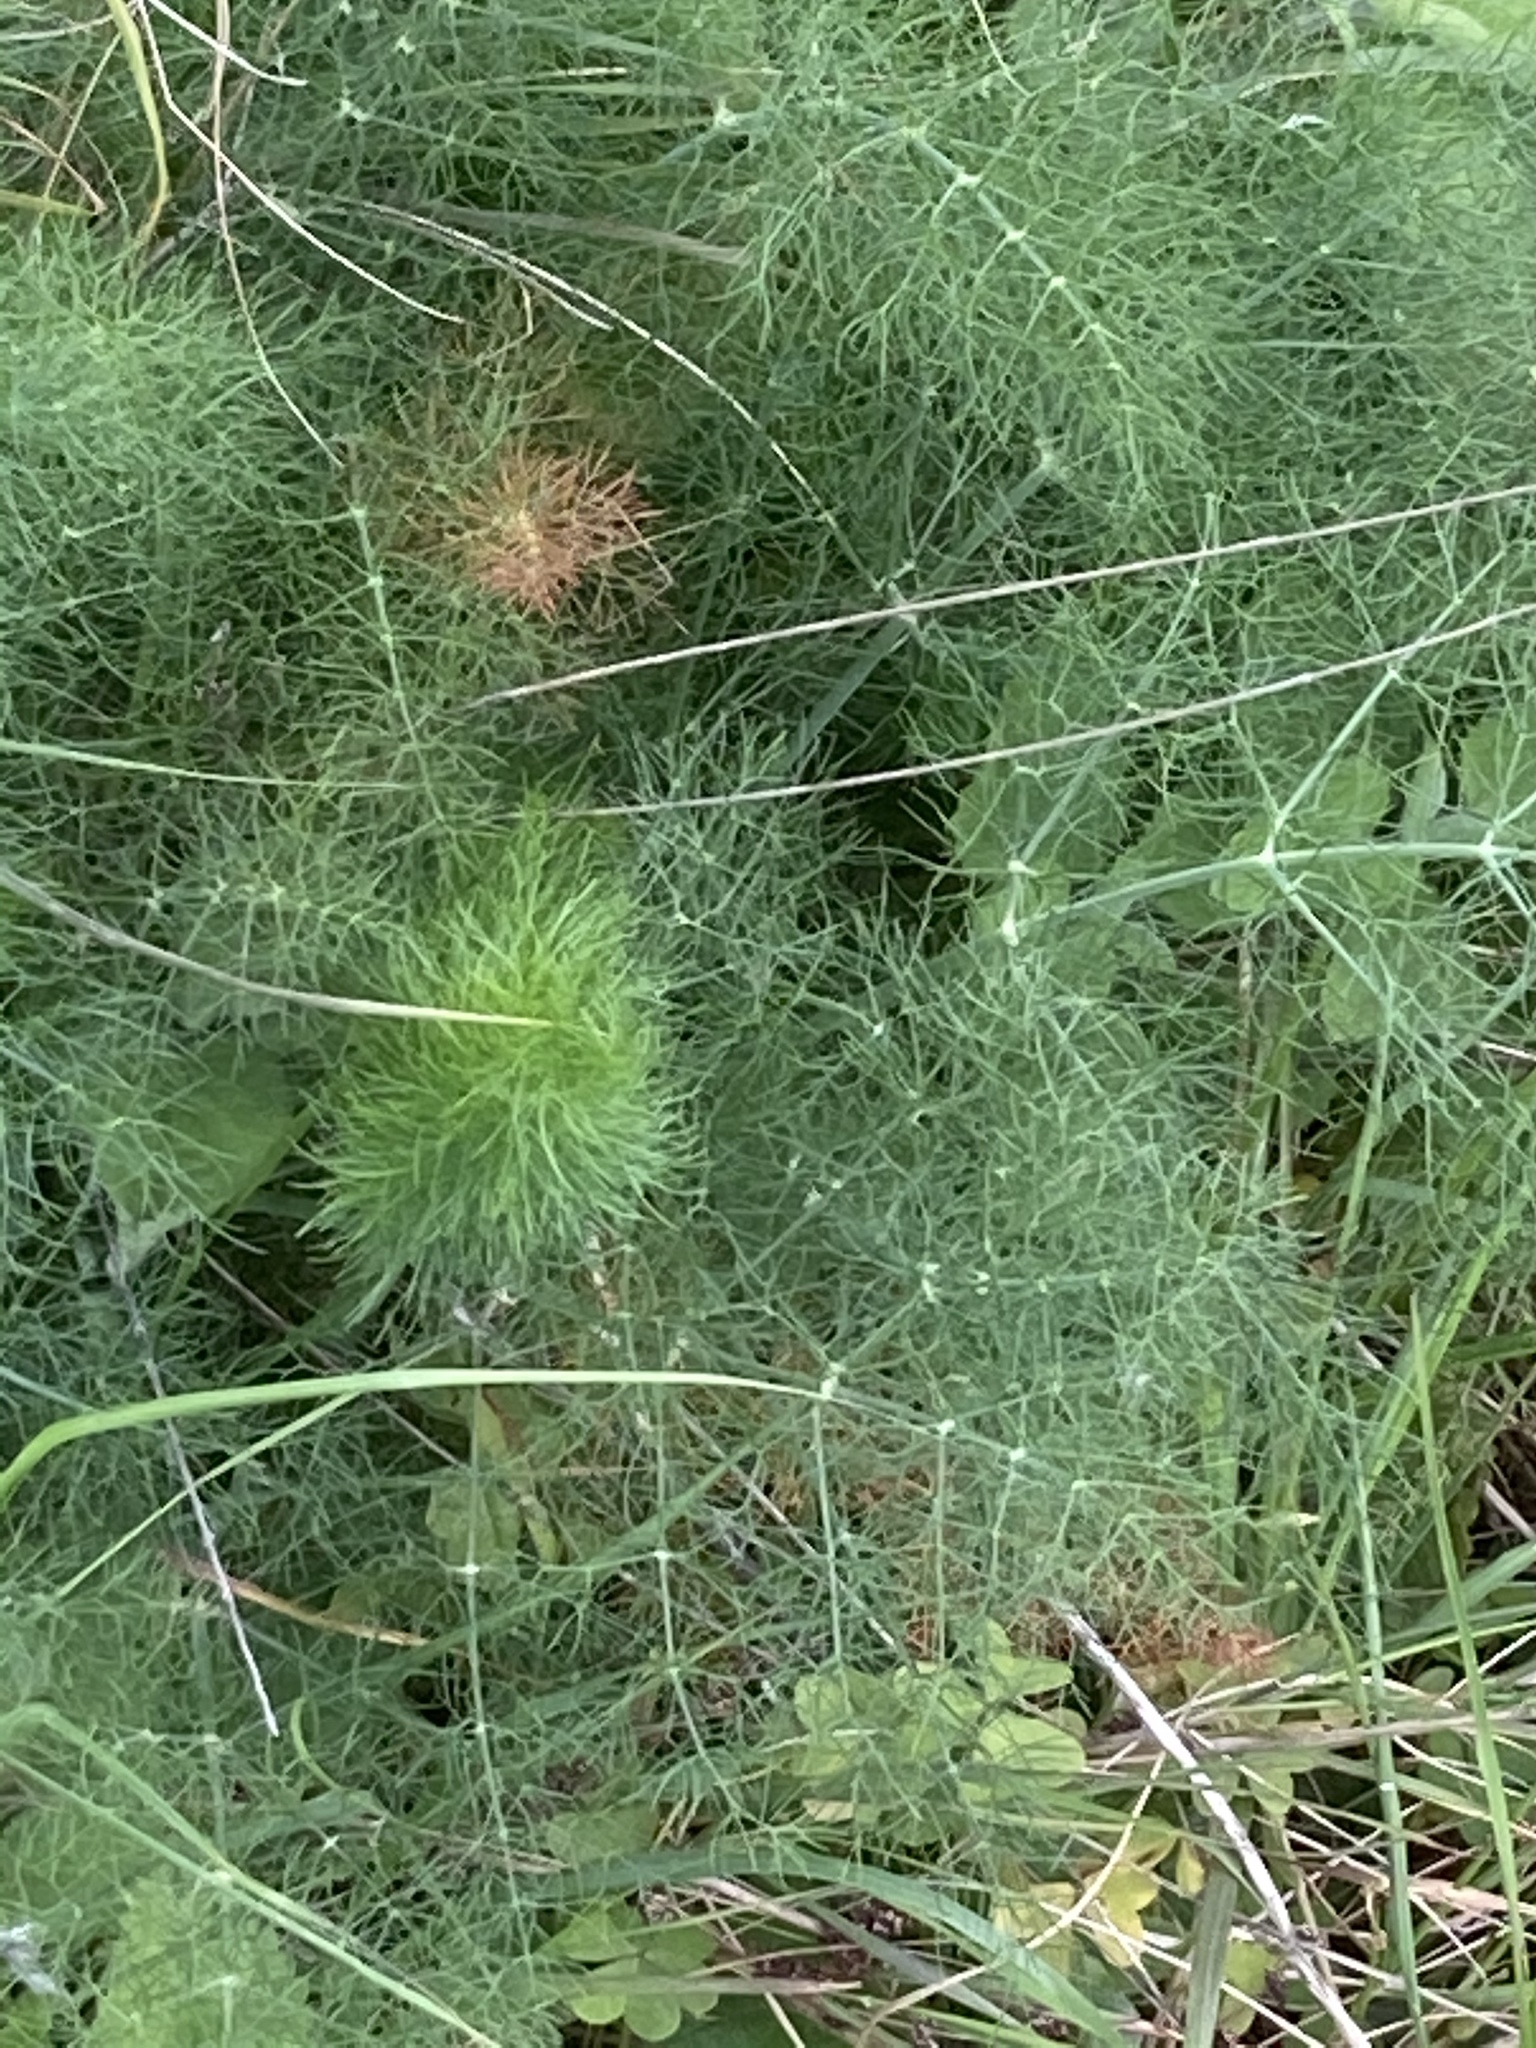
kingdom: Plantae
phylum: Tracheophyta
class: Magnoliopsida
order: Apiales
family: Apiaceae
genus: Foeniculum
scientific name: Foeniculum vulgare
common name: Fennel
